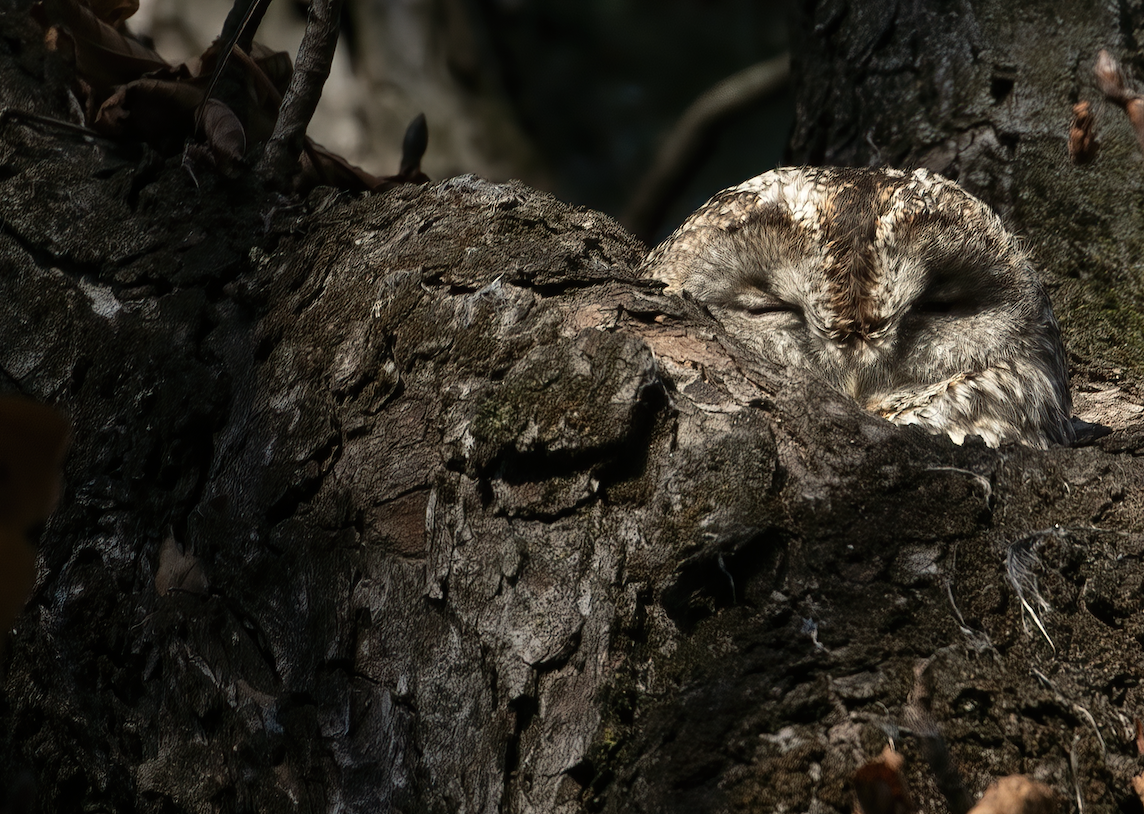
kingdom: Animalia
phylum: Chordata
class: Aves
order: Strigiformes
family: Strigidae
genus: Strix
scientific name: Strix aluco
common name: Tawny owl
